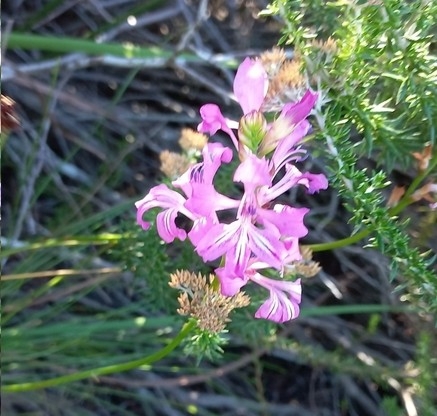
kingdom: Plantae
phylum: Tracheophyta
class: Liliopsida
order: Asparagales
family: Iridaceae
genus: Tritoniopsis
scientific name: Tritoniopsis lata
